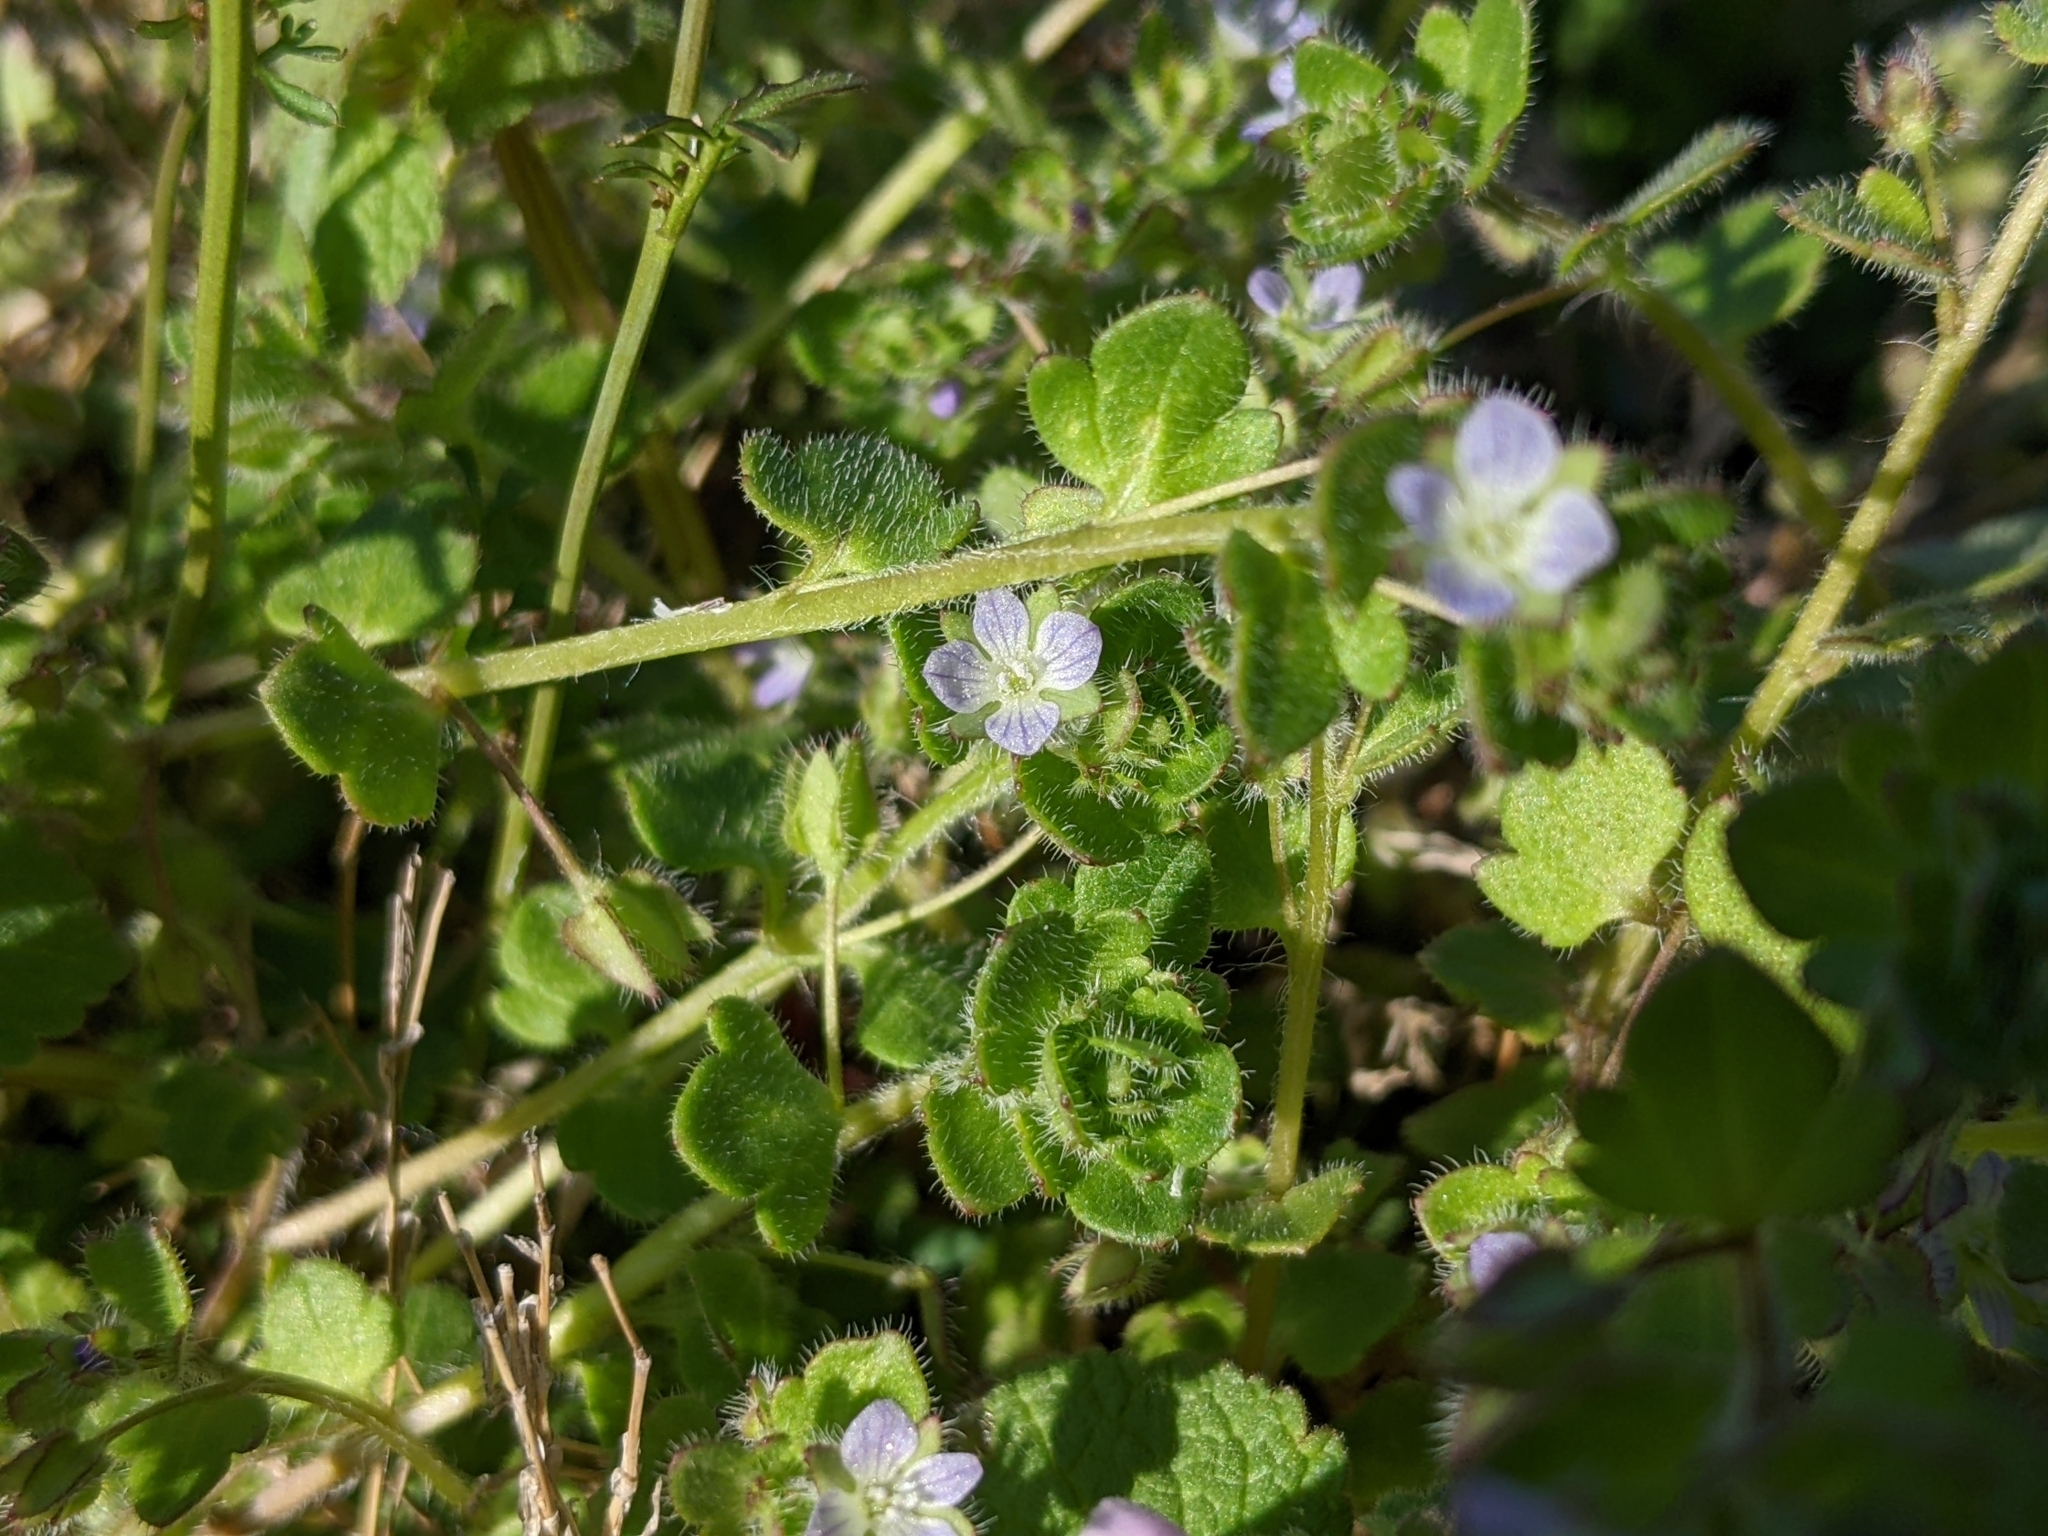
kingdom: Plantae
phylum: Tracheophyta
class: Magnoliopsida
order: Lamiales
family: Plantaginaceae
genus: Veronica
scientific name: Veronica hederifolia
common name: Ivy-leaved speedwell
